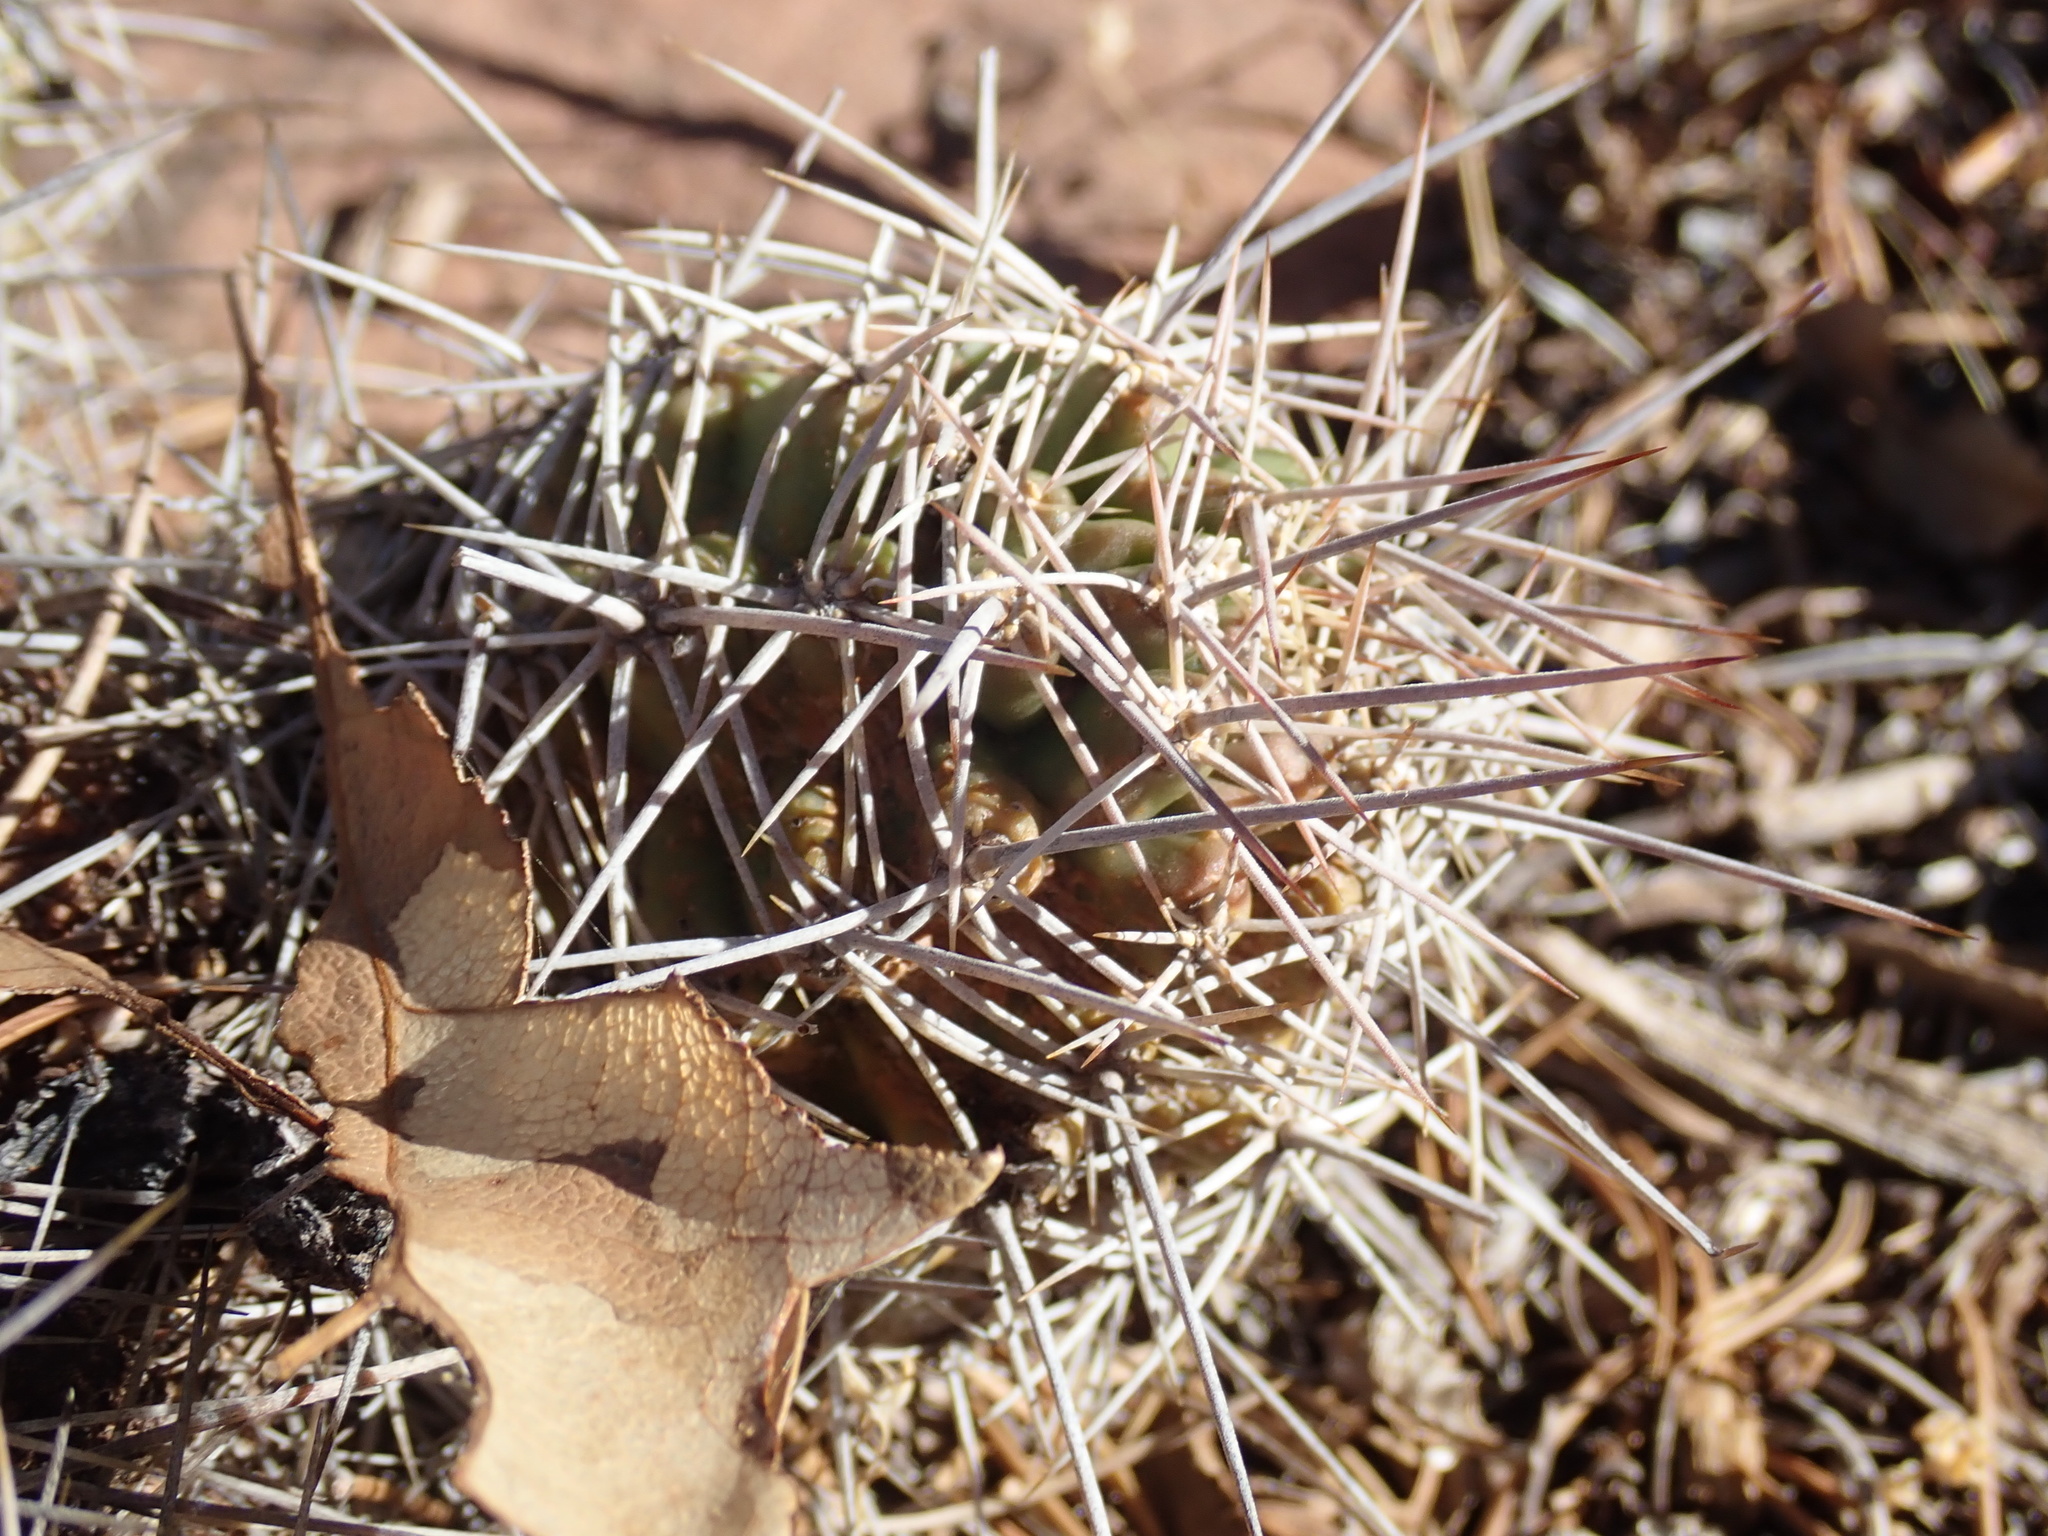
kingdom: Plantae
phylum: Tracheophyta
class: Magnoliopsida
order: Caryophyllales
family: Cactaceae
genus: Echinocereus
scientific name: Echinocereus triglochidiatus
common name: Claretcup hedgehog
